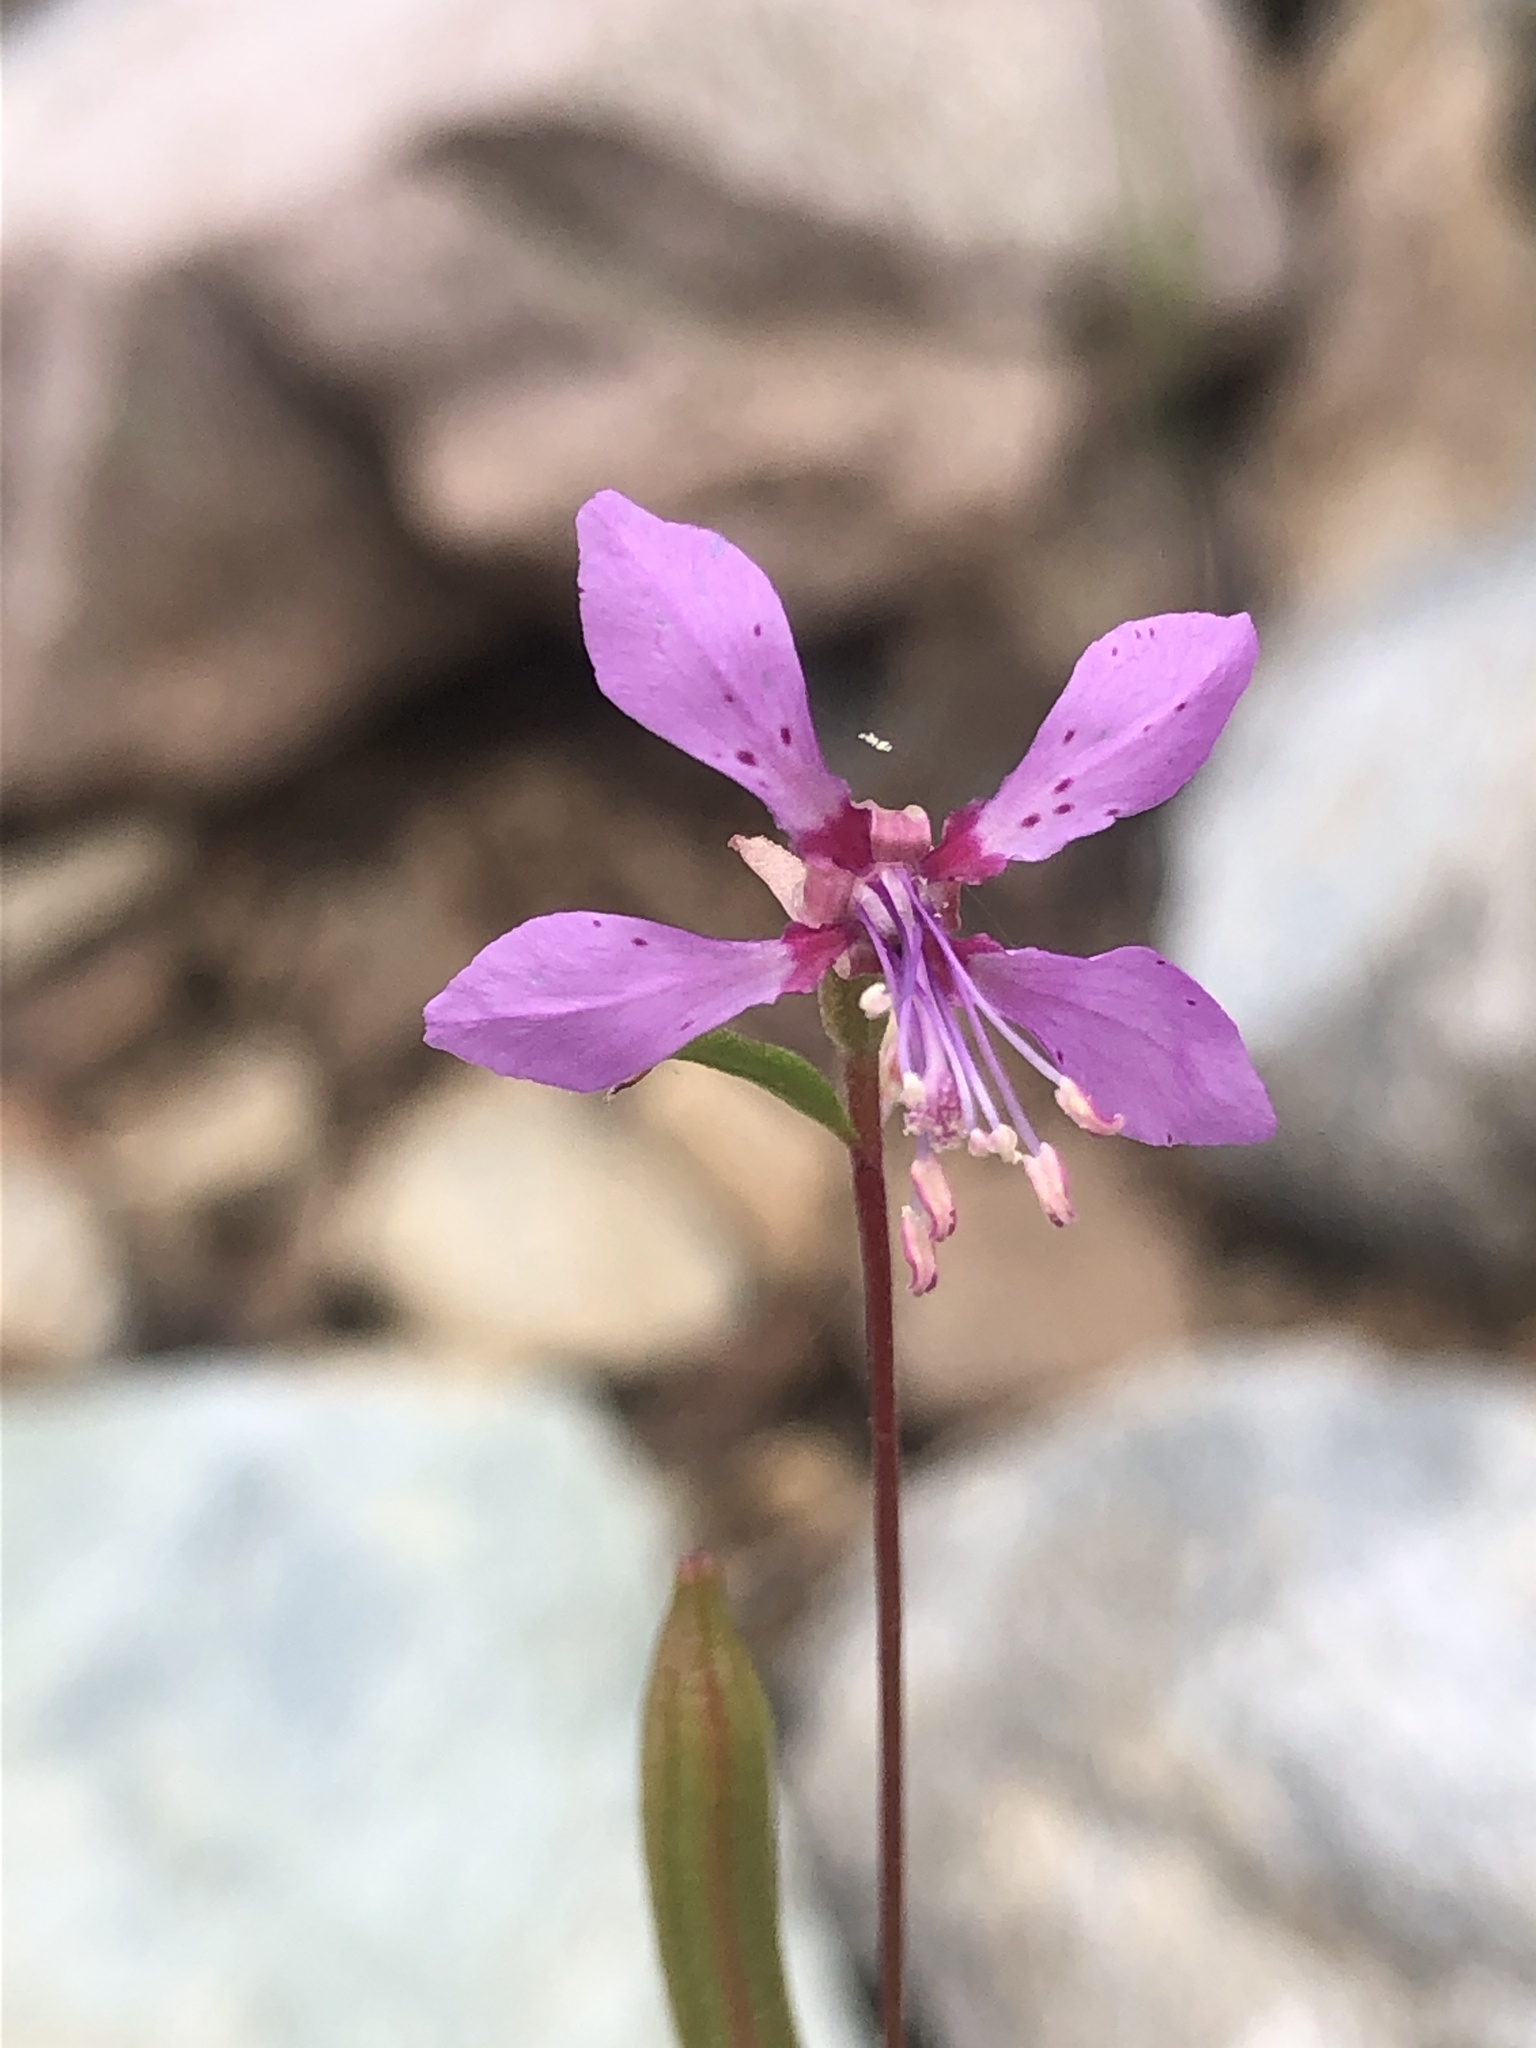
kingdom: Plantae
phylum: Tracheophyta
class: Magnoliopsida
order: Myrtales
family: Onagraceae
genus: Clarkia
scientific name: Clarkia rhomboidea
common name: Broadleaf clarkia
